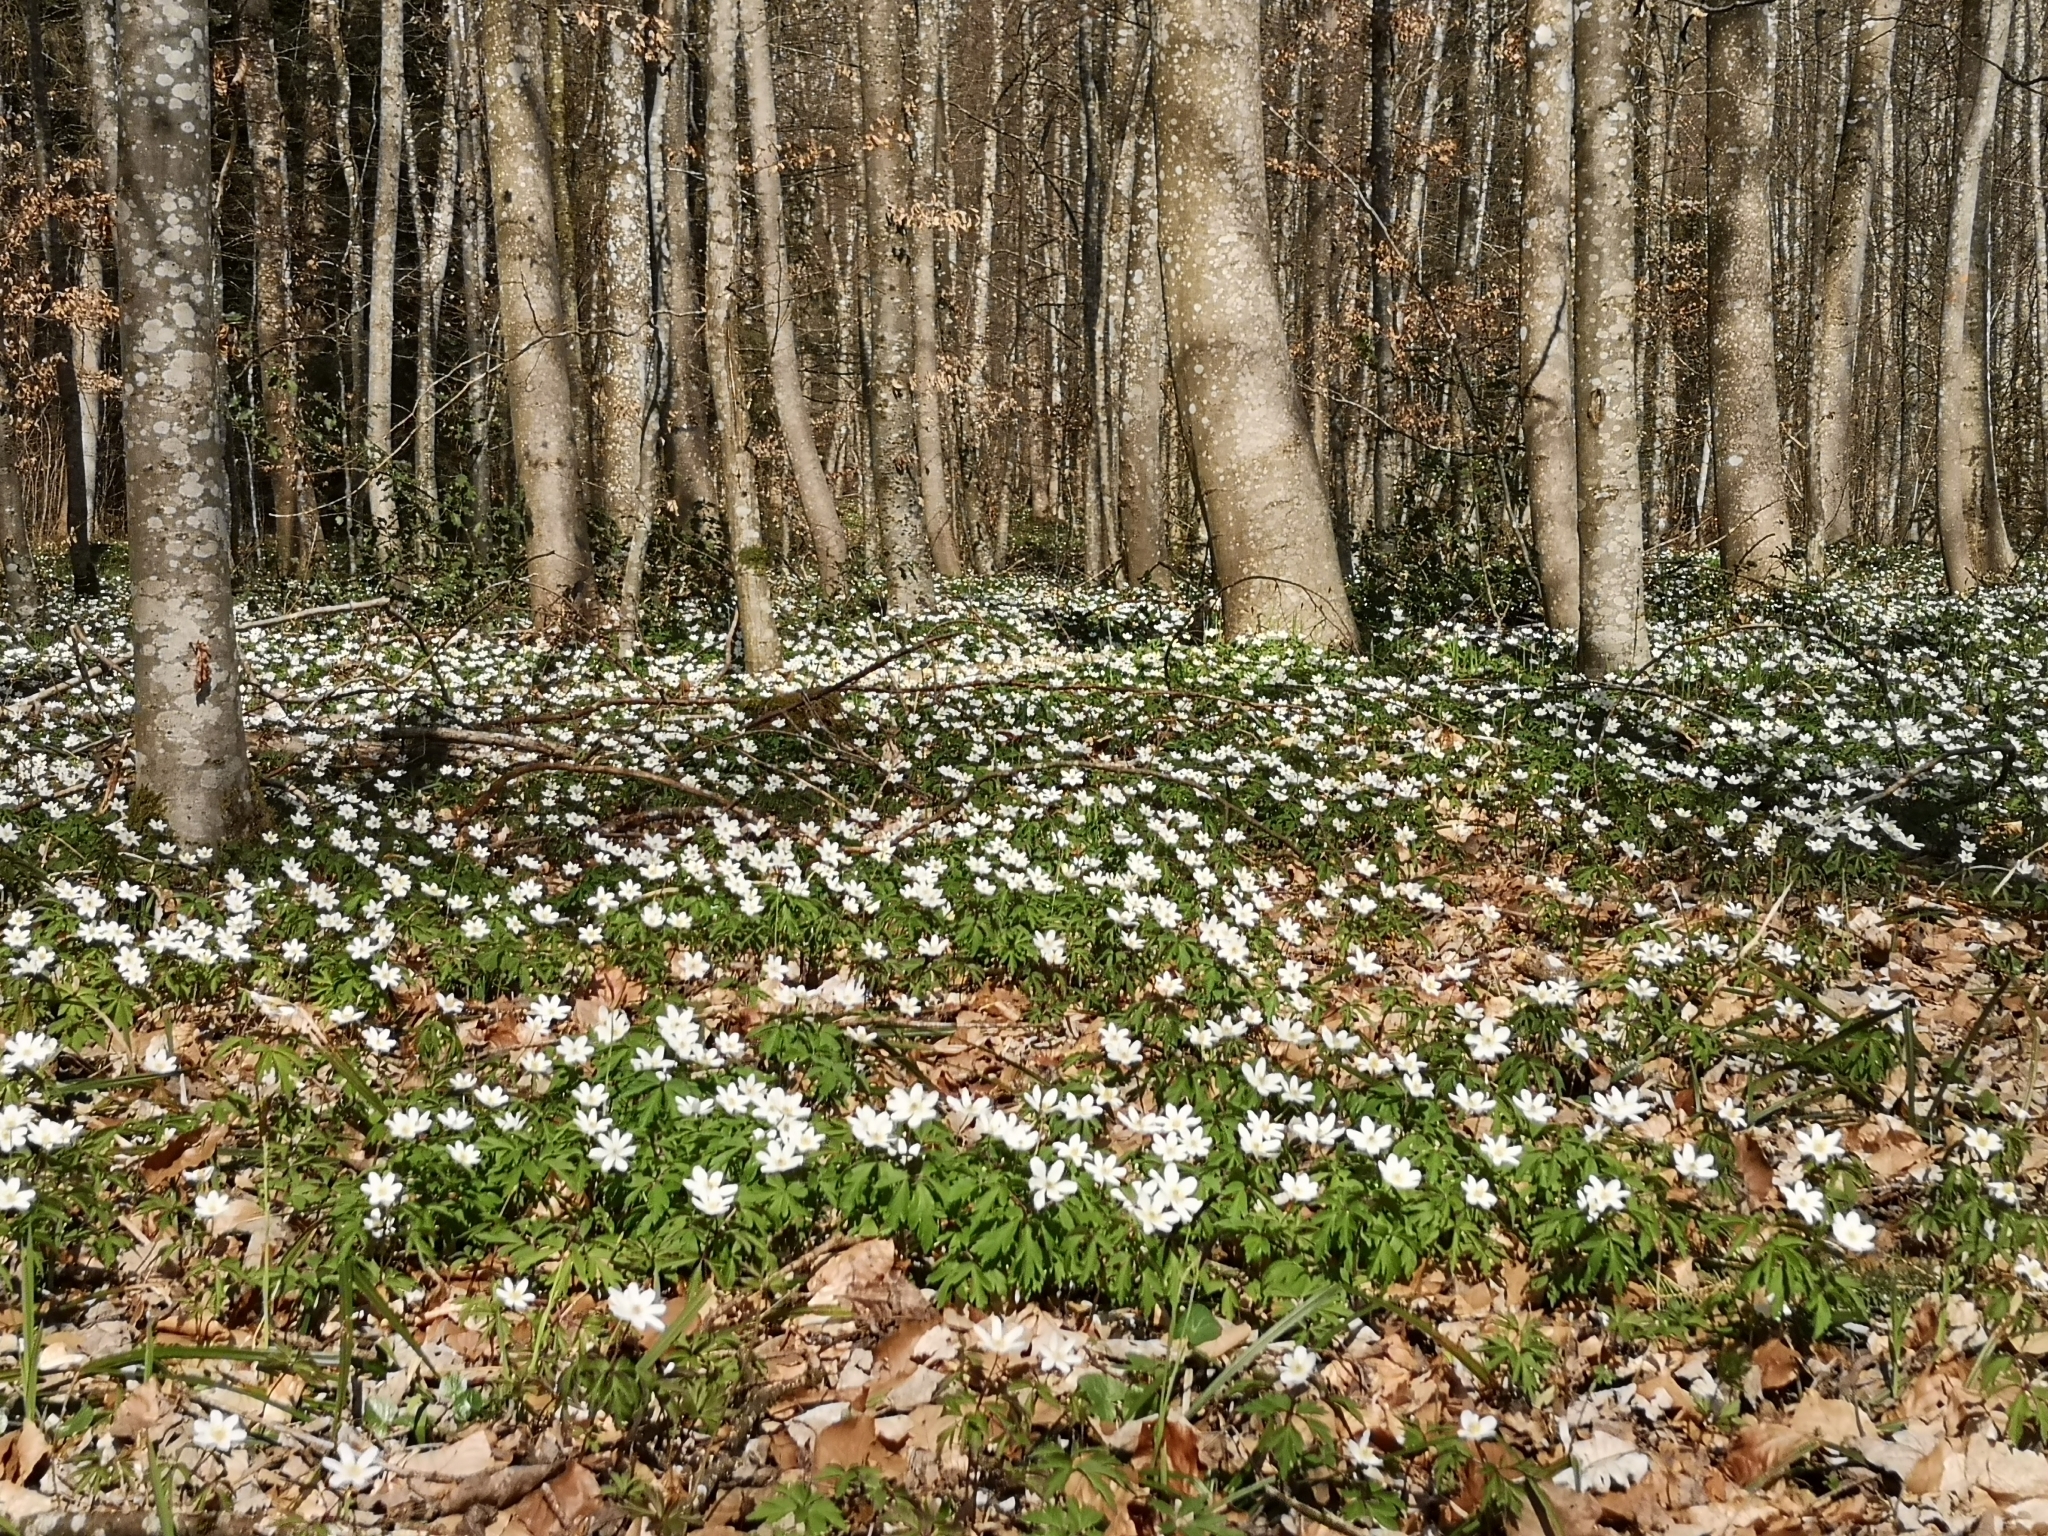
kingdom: Plantae
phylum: Tracheophyta
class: Magnoliopsida
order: Ranunculales
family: Ranunculaceae
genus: Anemone
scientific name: Anemone nemorosa
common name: Wood anemone
